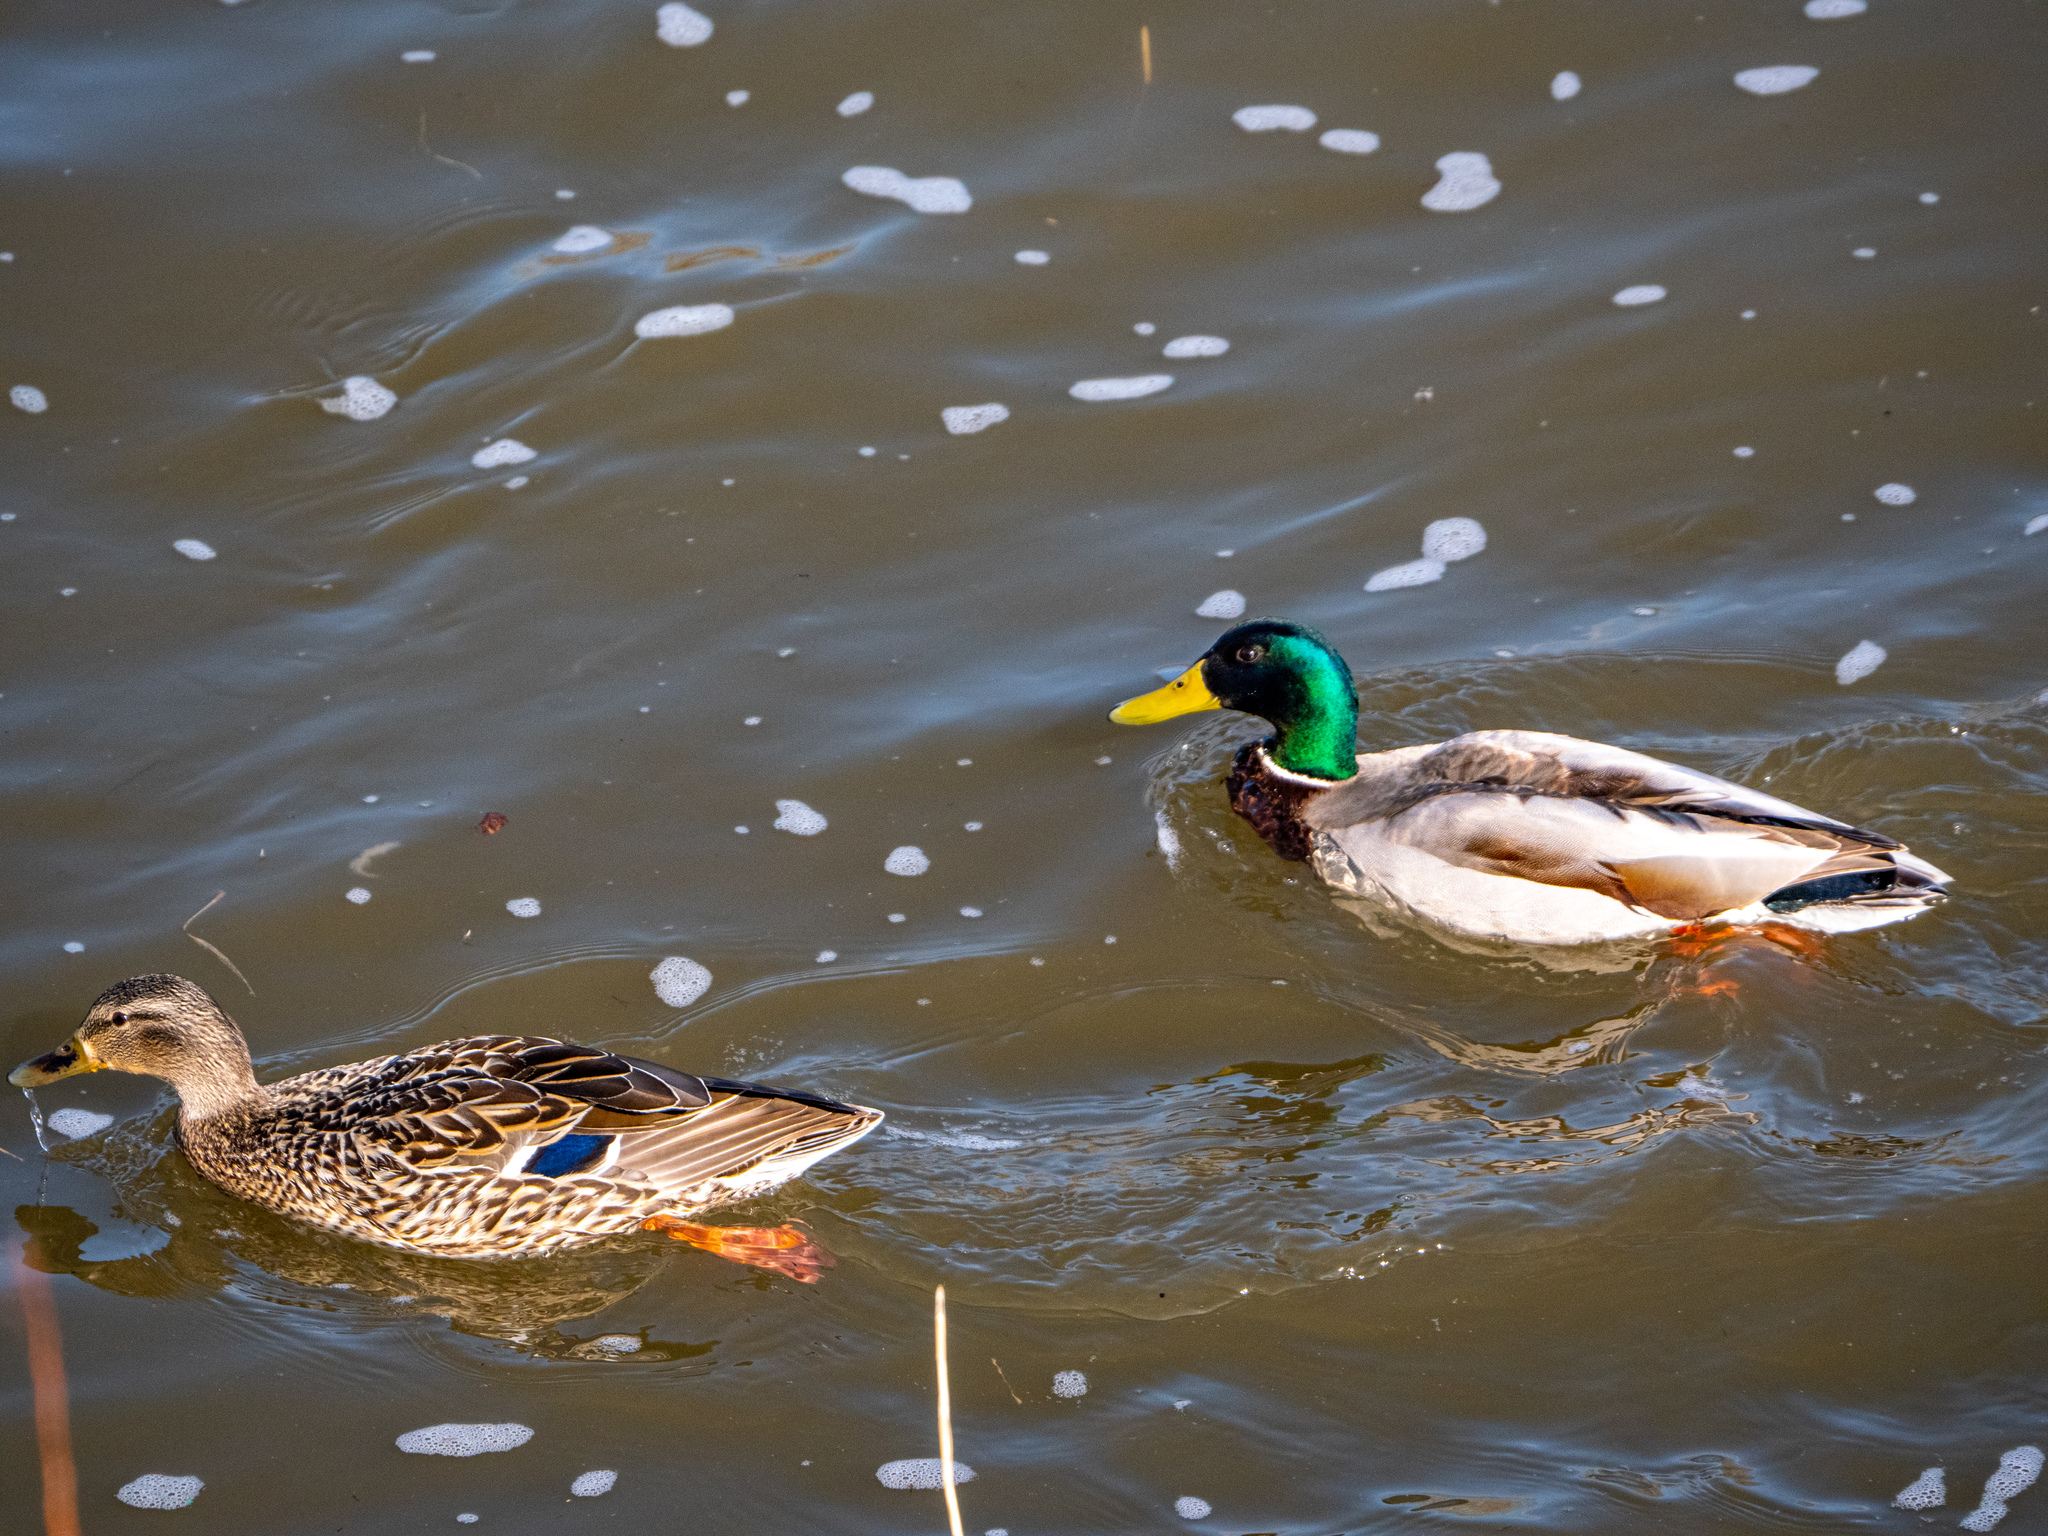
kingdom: Animalia
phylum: Chordata
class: Aves
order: Anseriformes
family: Anatidae
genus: Anas
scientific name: Anas platyrhynchos
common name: Mallard
